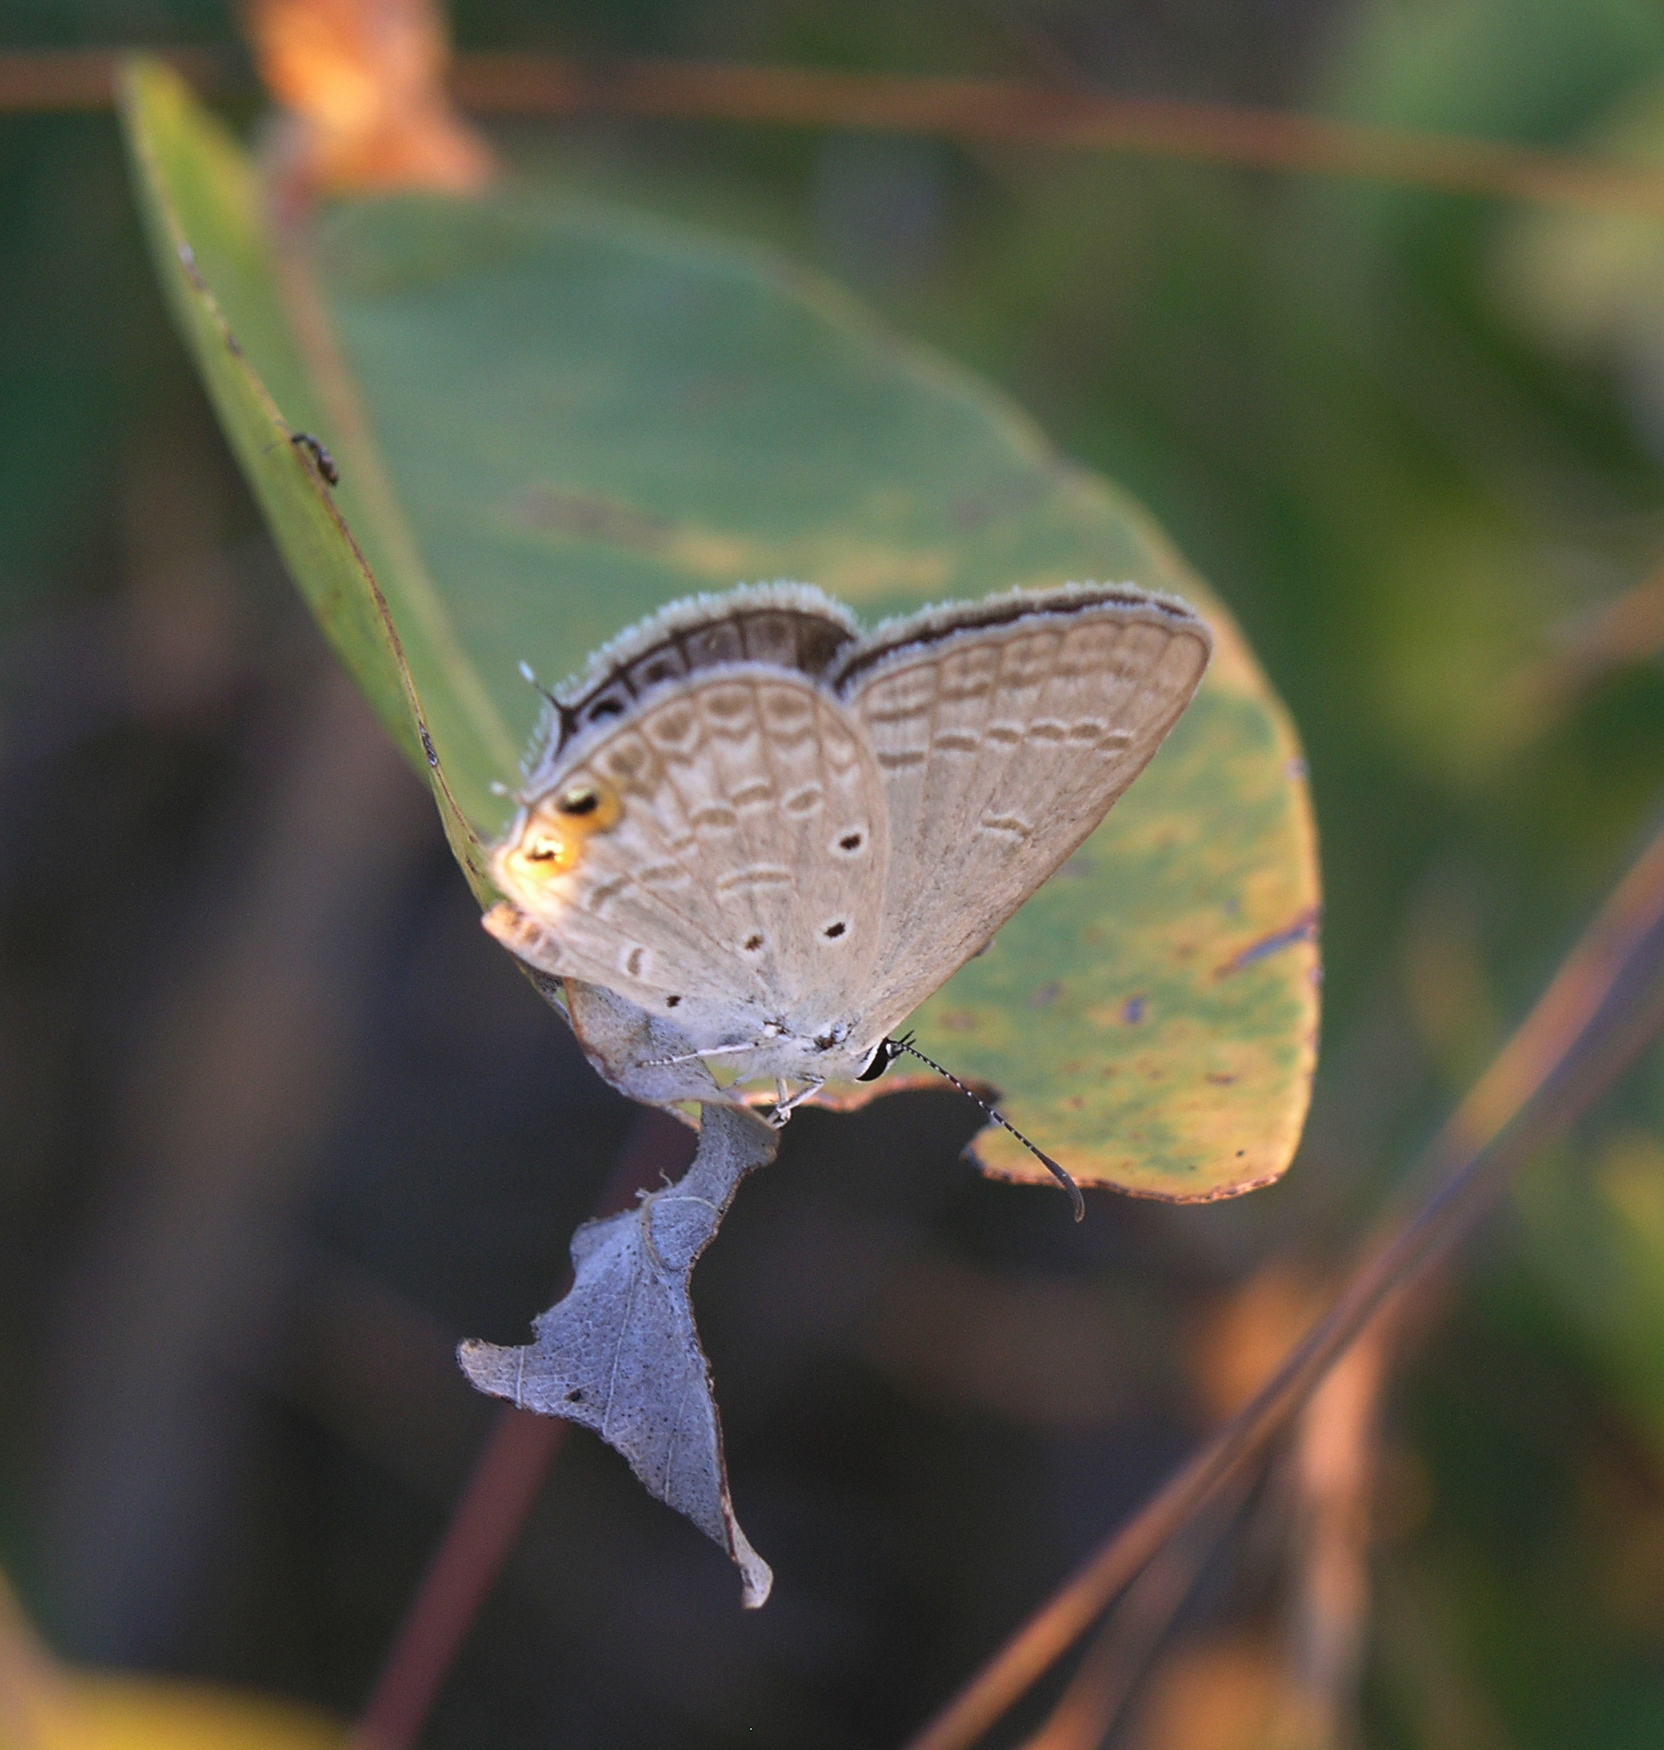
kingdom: Animalia
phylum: Arthropoda
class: Insecta
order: Lepidoptera
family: Lycaenidae
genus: Euchrysops
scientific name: Euchrysops cnejus
